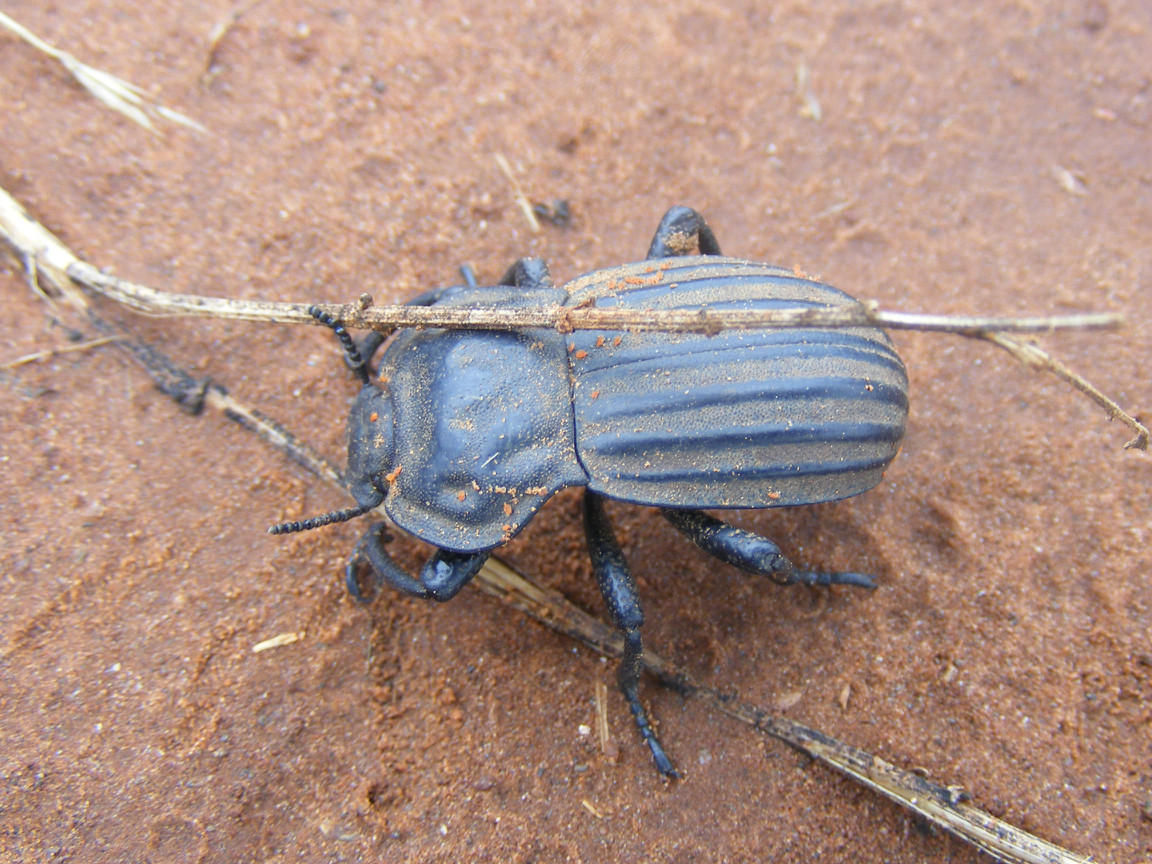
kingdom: Animalia
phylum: Arthropoda
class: Insecta
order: Coleoptera
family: Tenebrionidae
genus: Anomalipus
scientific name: Anomalipus
